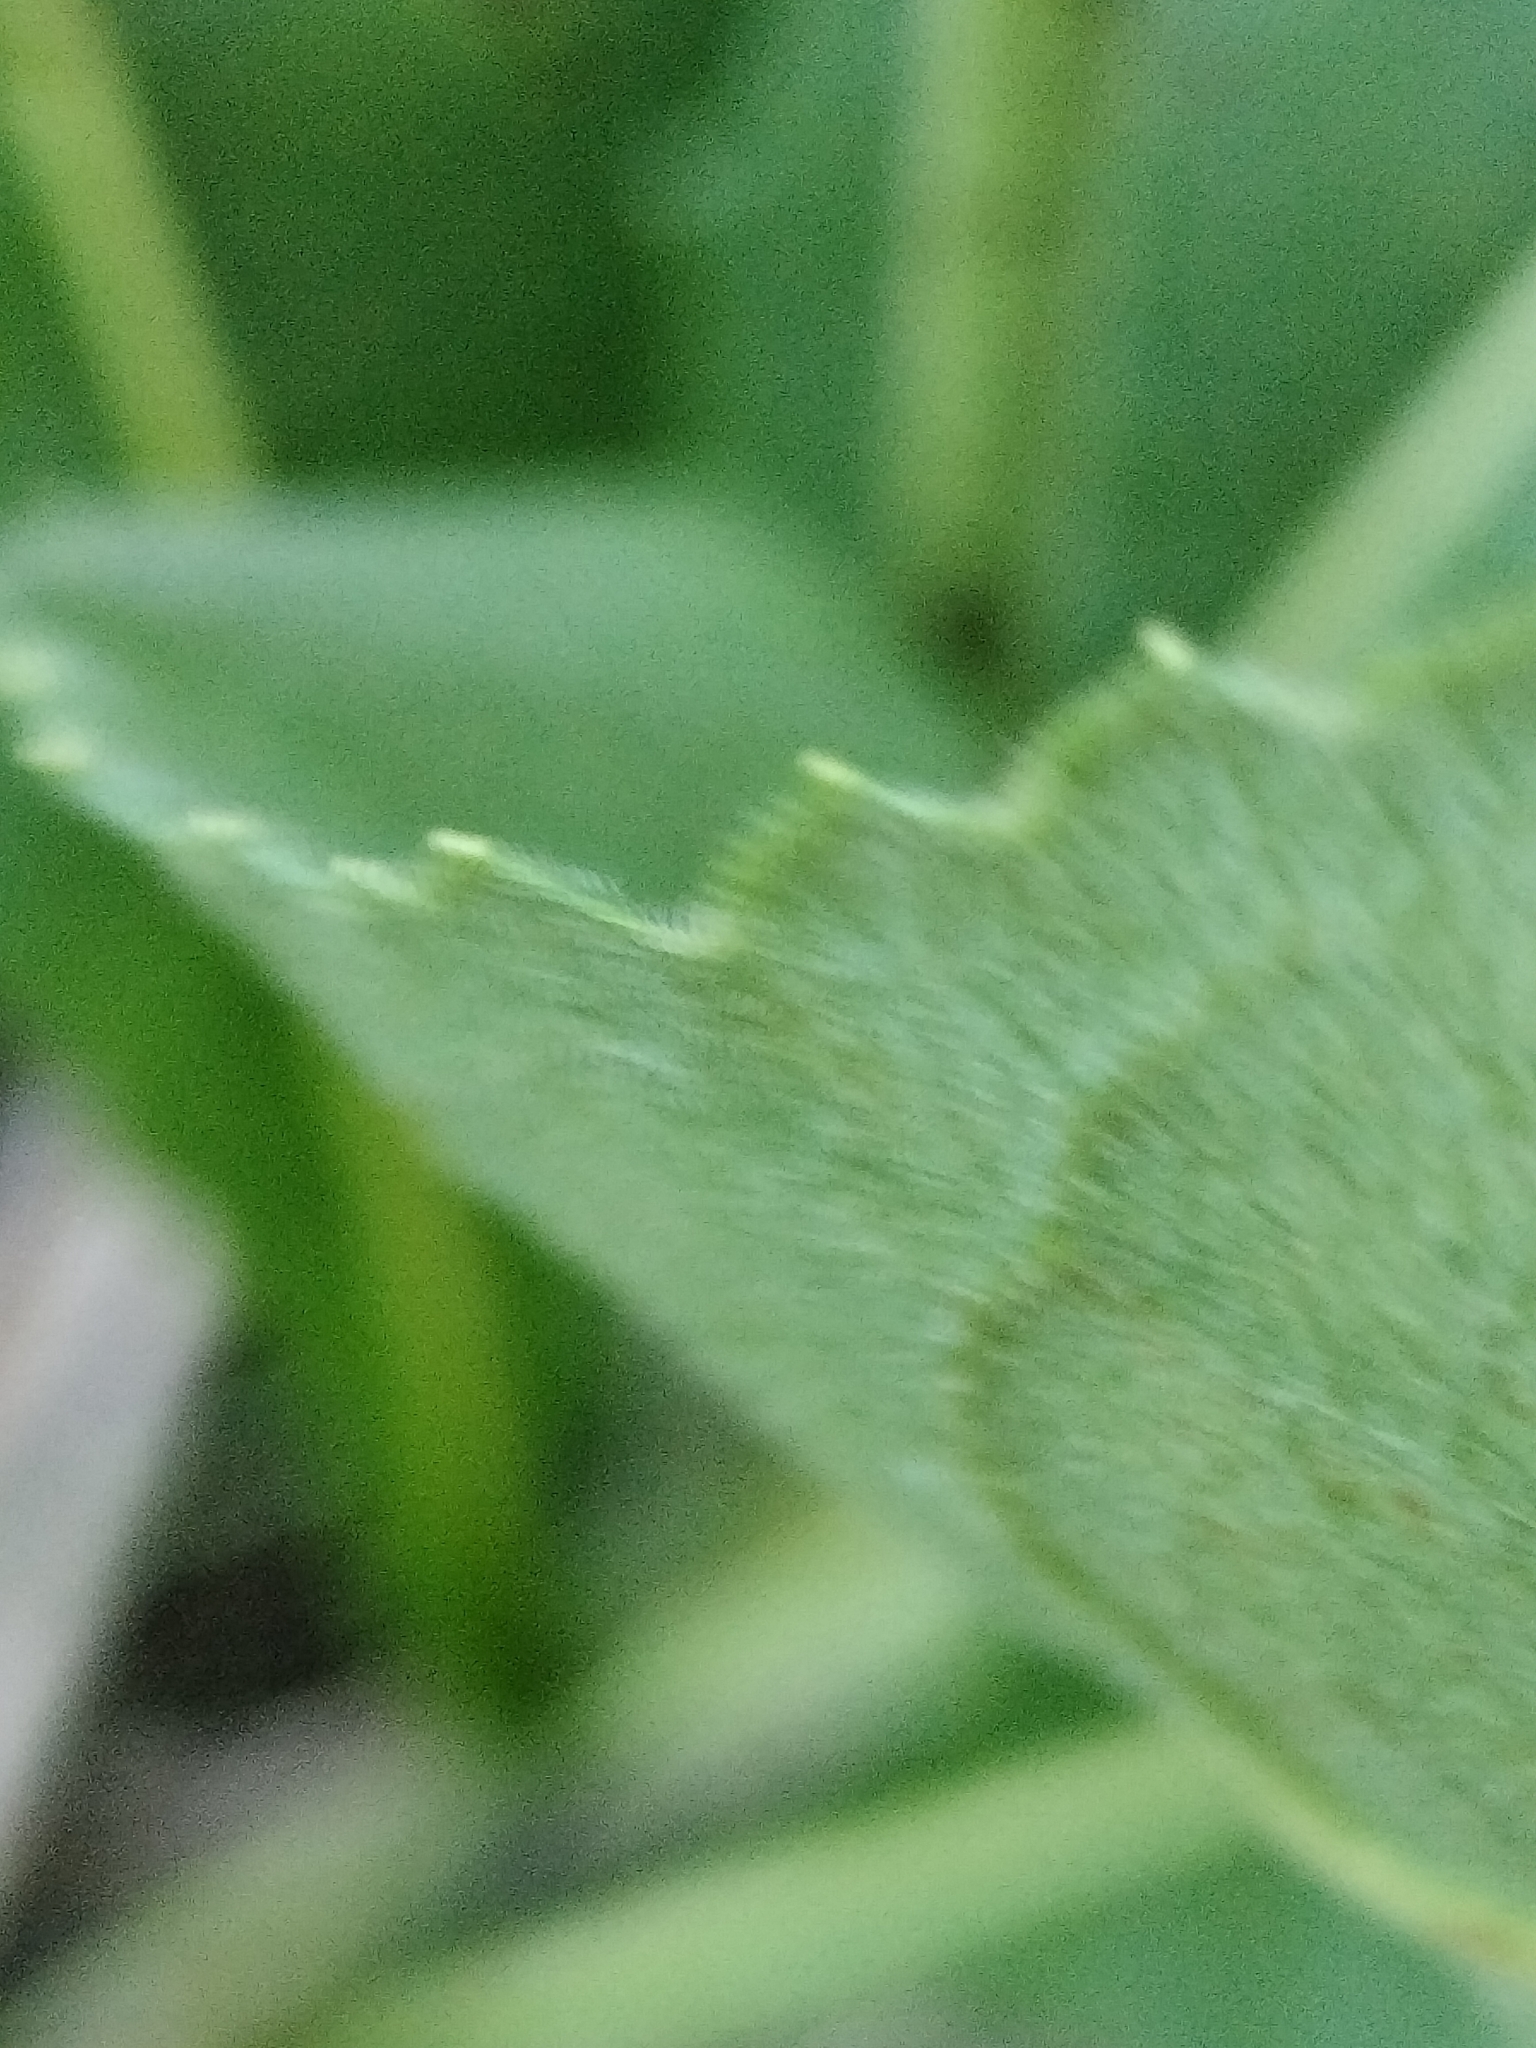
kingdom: Plantae
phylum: Tracheophyta
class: Magnoliopsida
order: Asterales
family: Asteraceae
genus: Parthenium
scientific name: Parthenium integrifolium
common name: American feverfew
